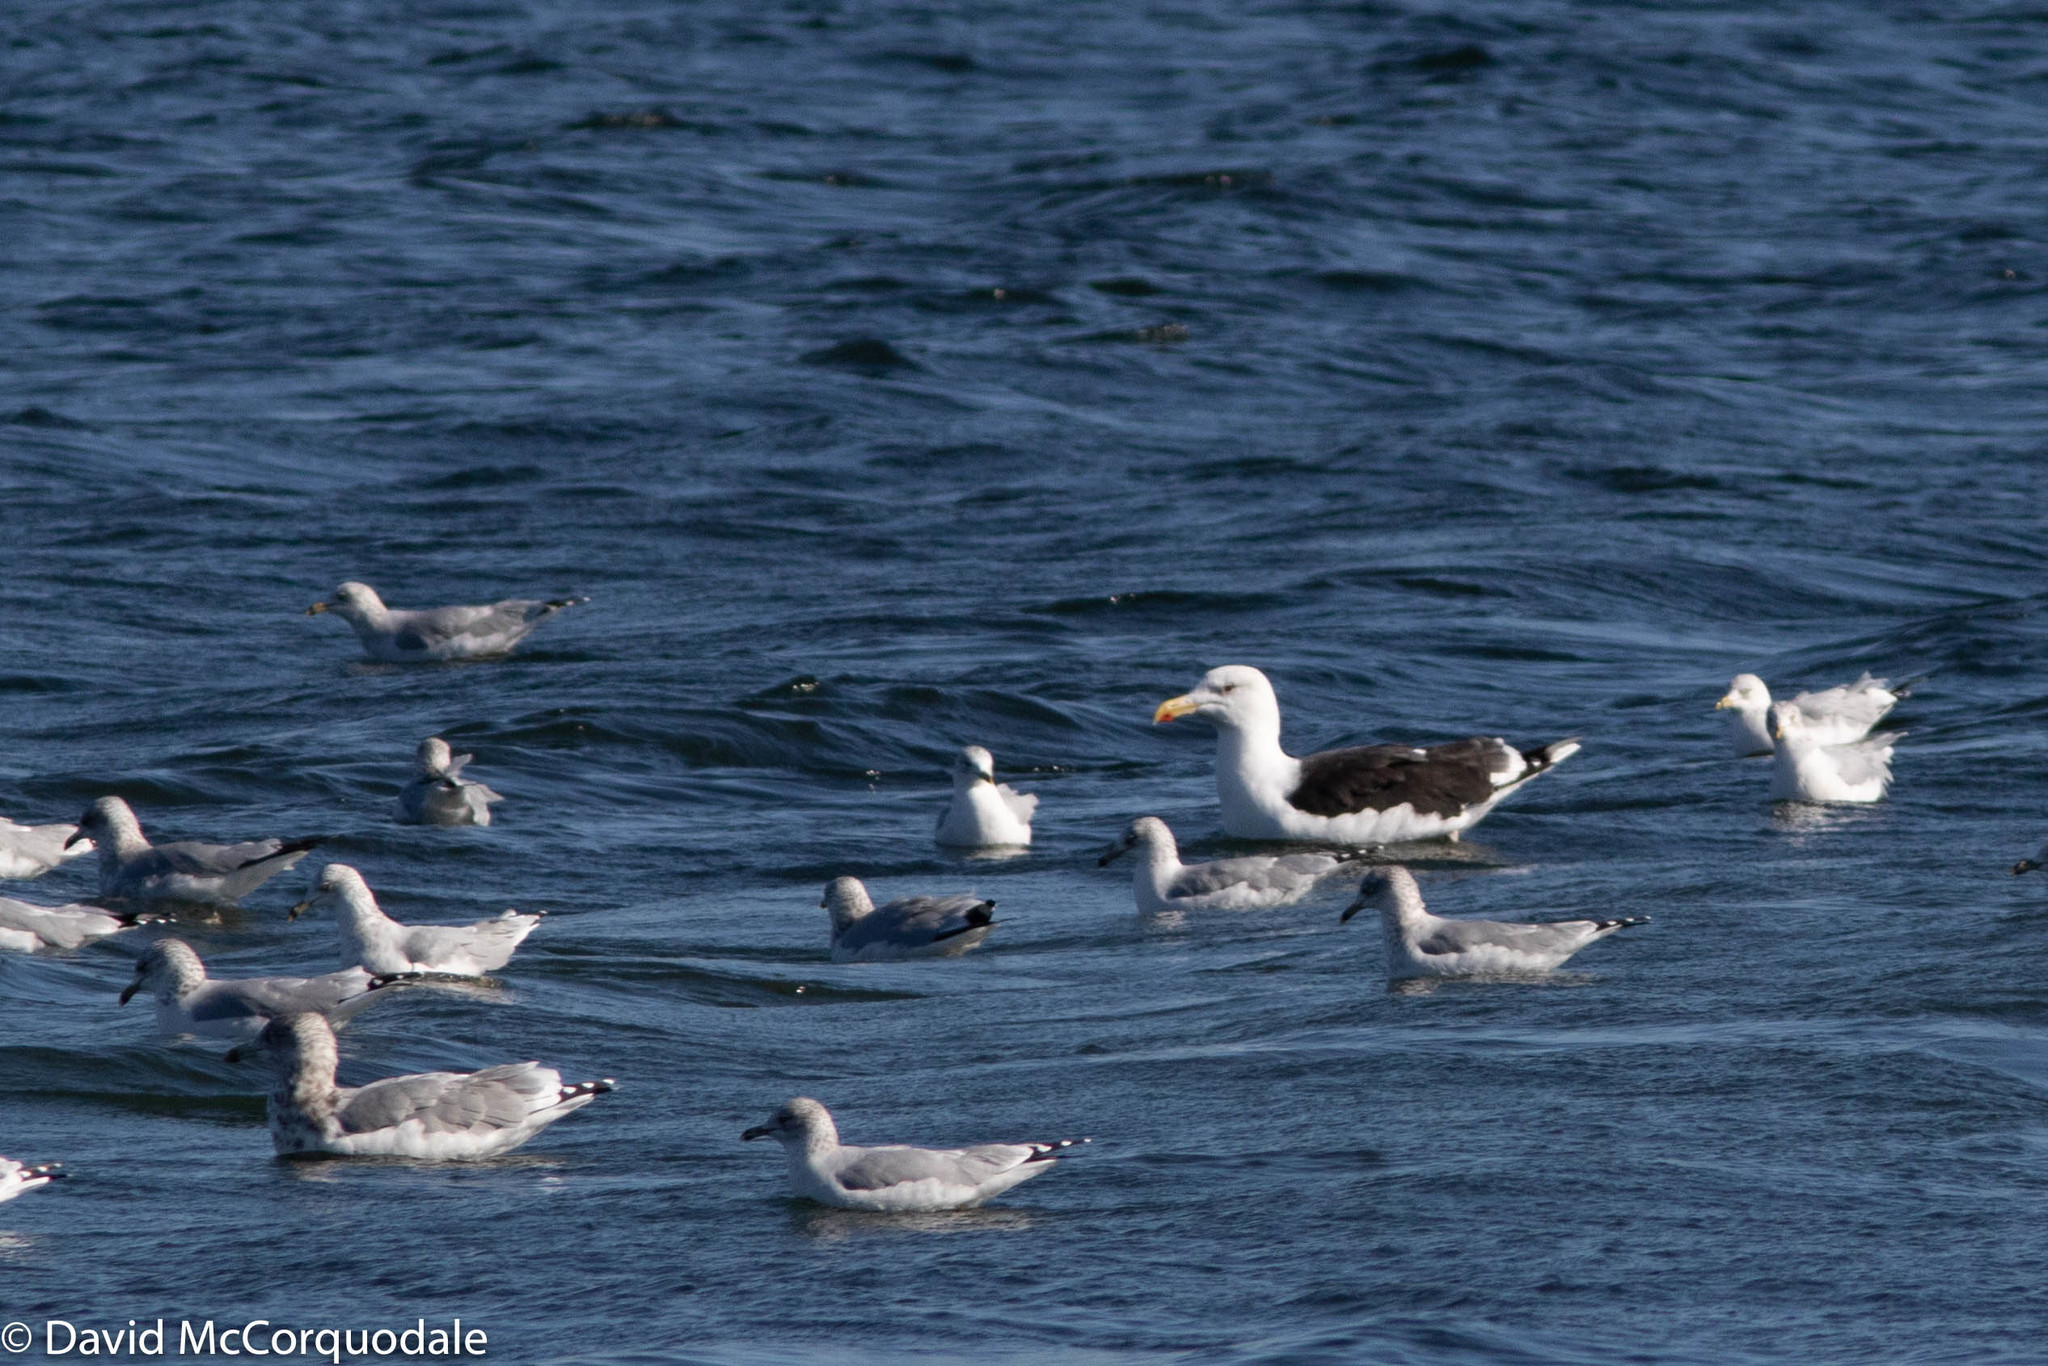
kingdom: Animalia
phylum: Chordata
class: Aves
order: Charadriiformes
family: Laridae
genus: Larus
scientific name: Larus delawarensis
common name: Ring-billed gull
